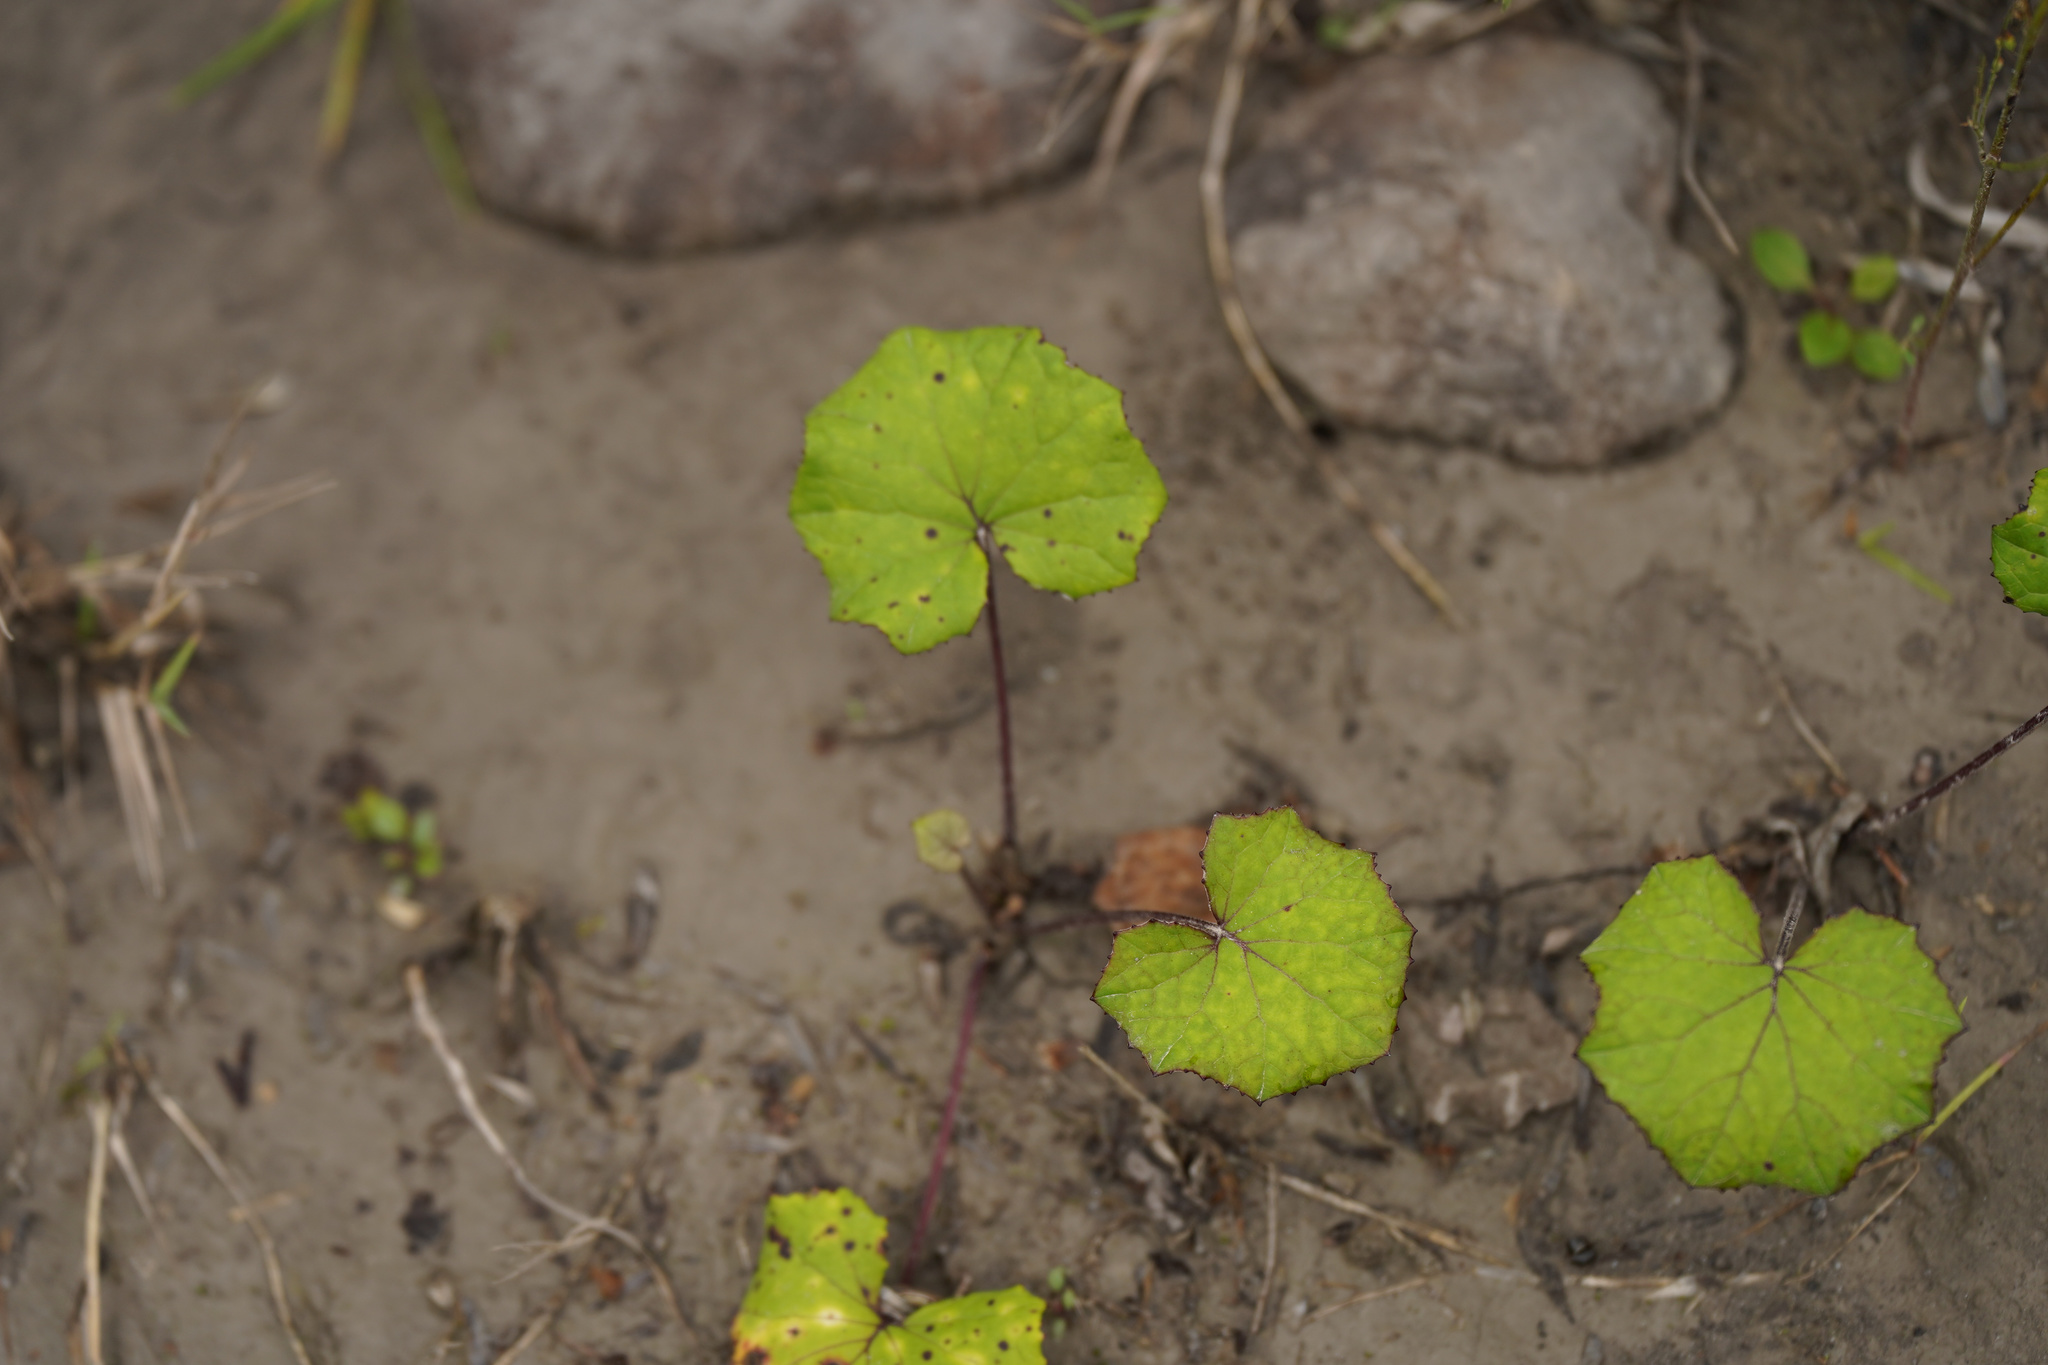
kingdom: Plantae
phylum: Tracheophyta
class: Magnoliopsida
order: Asterales
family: Asteraceae
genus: Tussilago
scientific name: Tussilago farfara
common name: Coltsfoot
